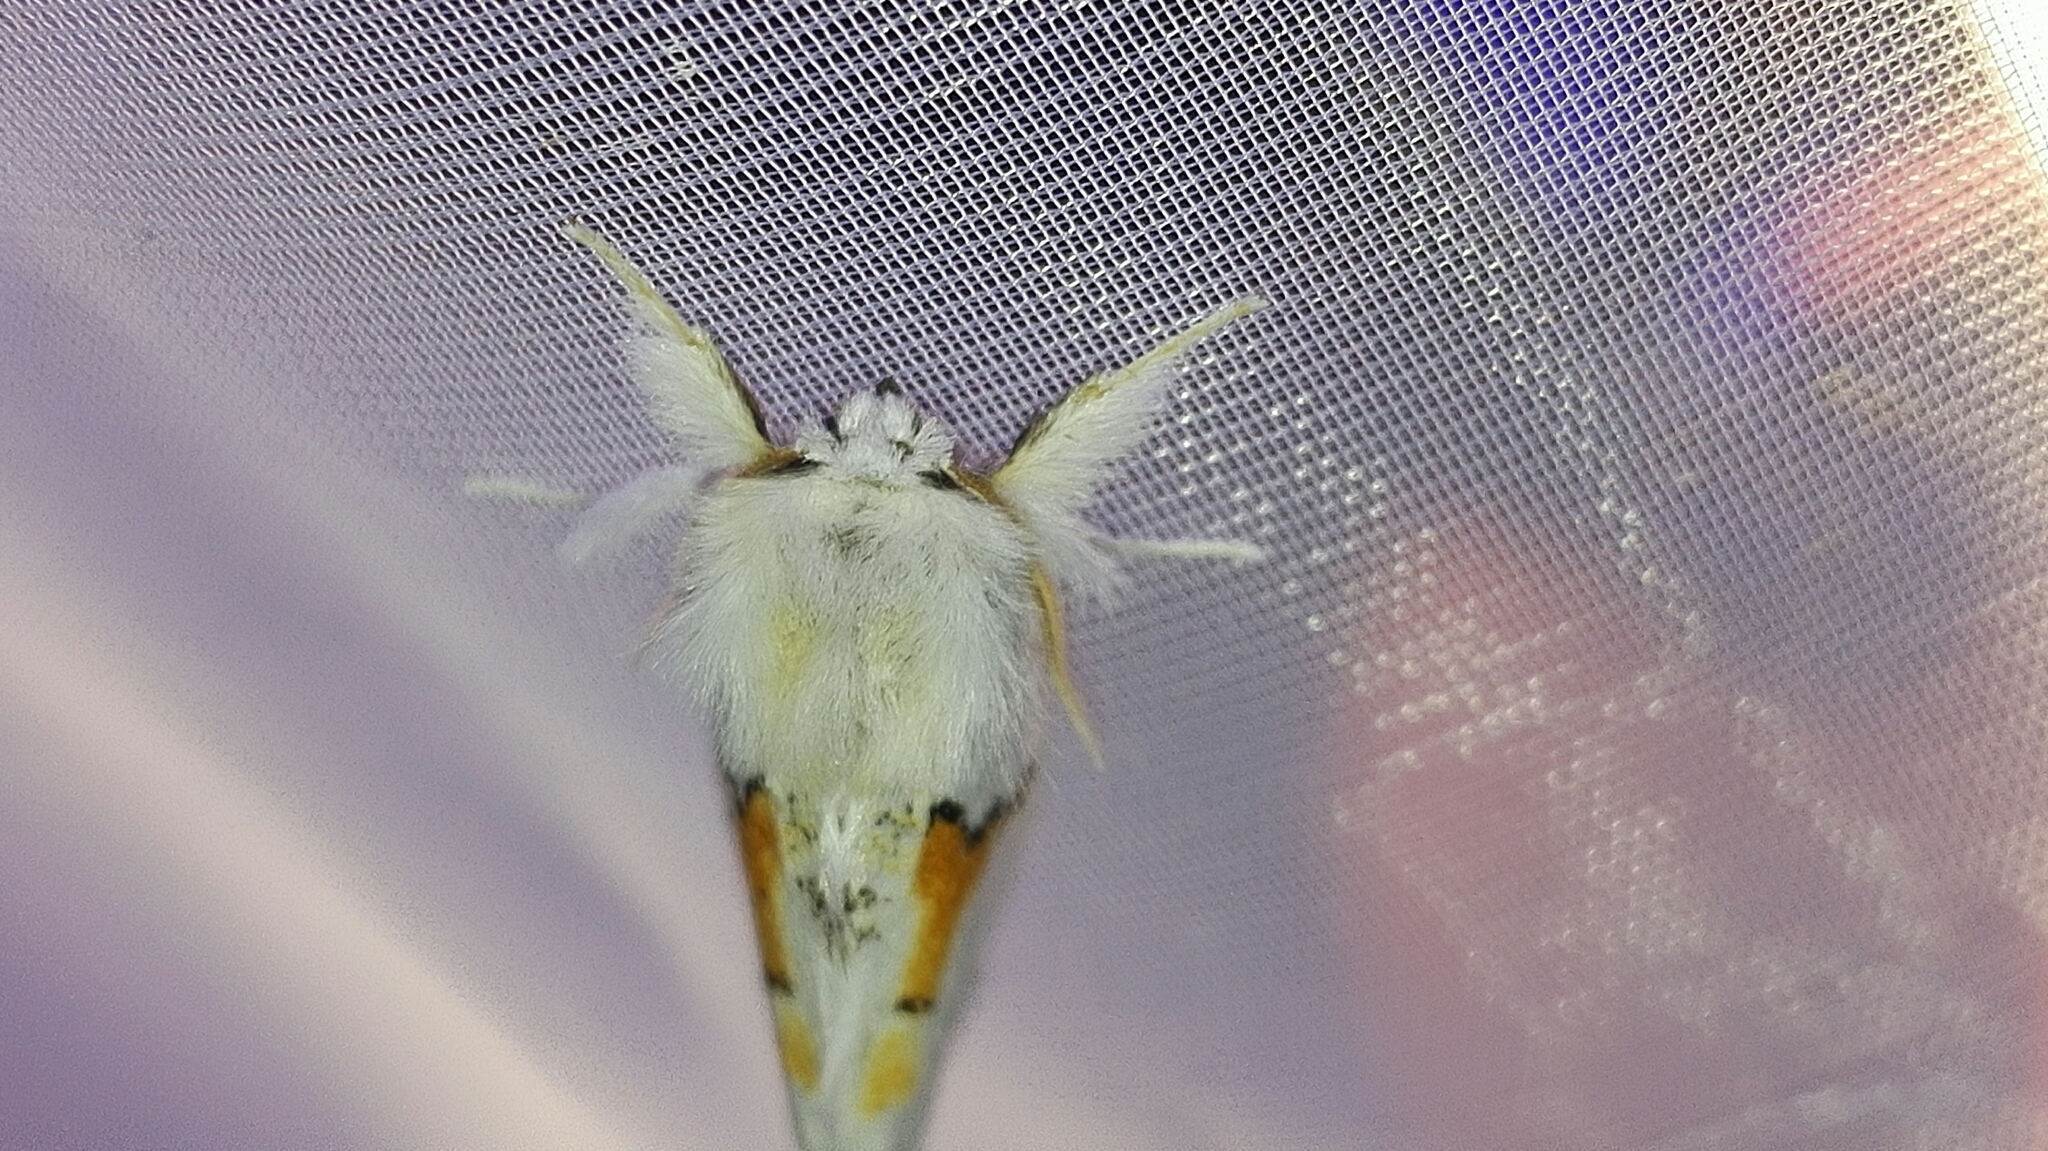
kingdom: Animalia
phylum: Arthropoda
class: Insecta
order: Lepidoptera
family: Notodontidae
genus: Leucodonta
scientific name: Leucodonta bicoloria
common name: White prominent
